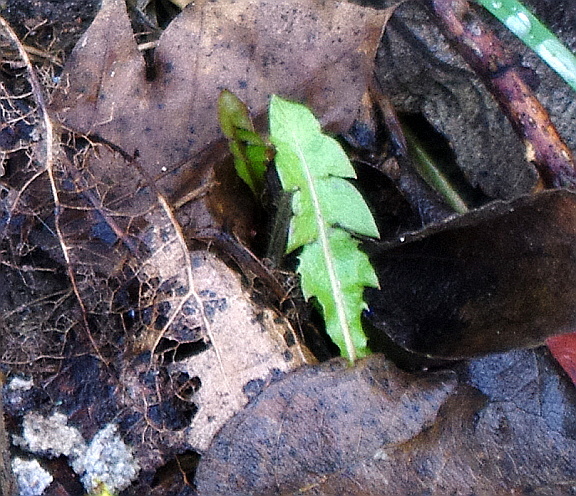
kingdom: Plantae
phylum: Tracheophyta
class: Magnoliopsida
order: Asterales
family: Asteraceae
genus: Taraxacum
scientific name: Taraxacum officinale
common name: Common dandelion
